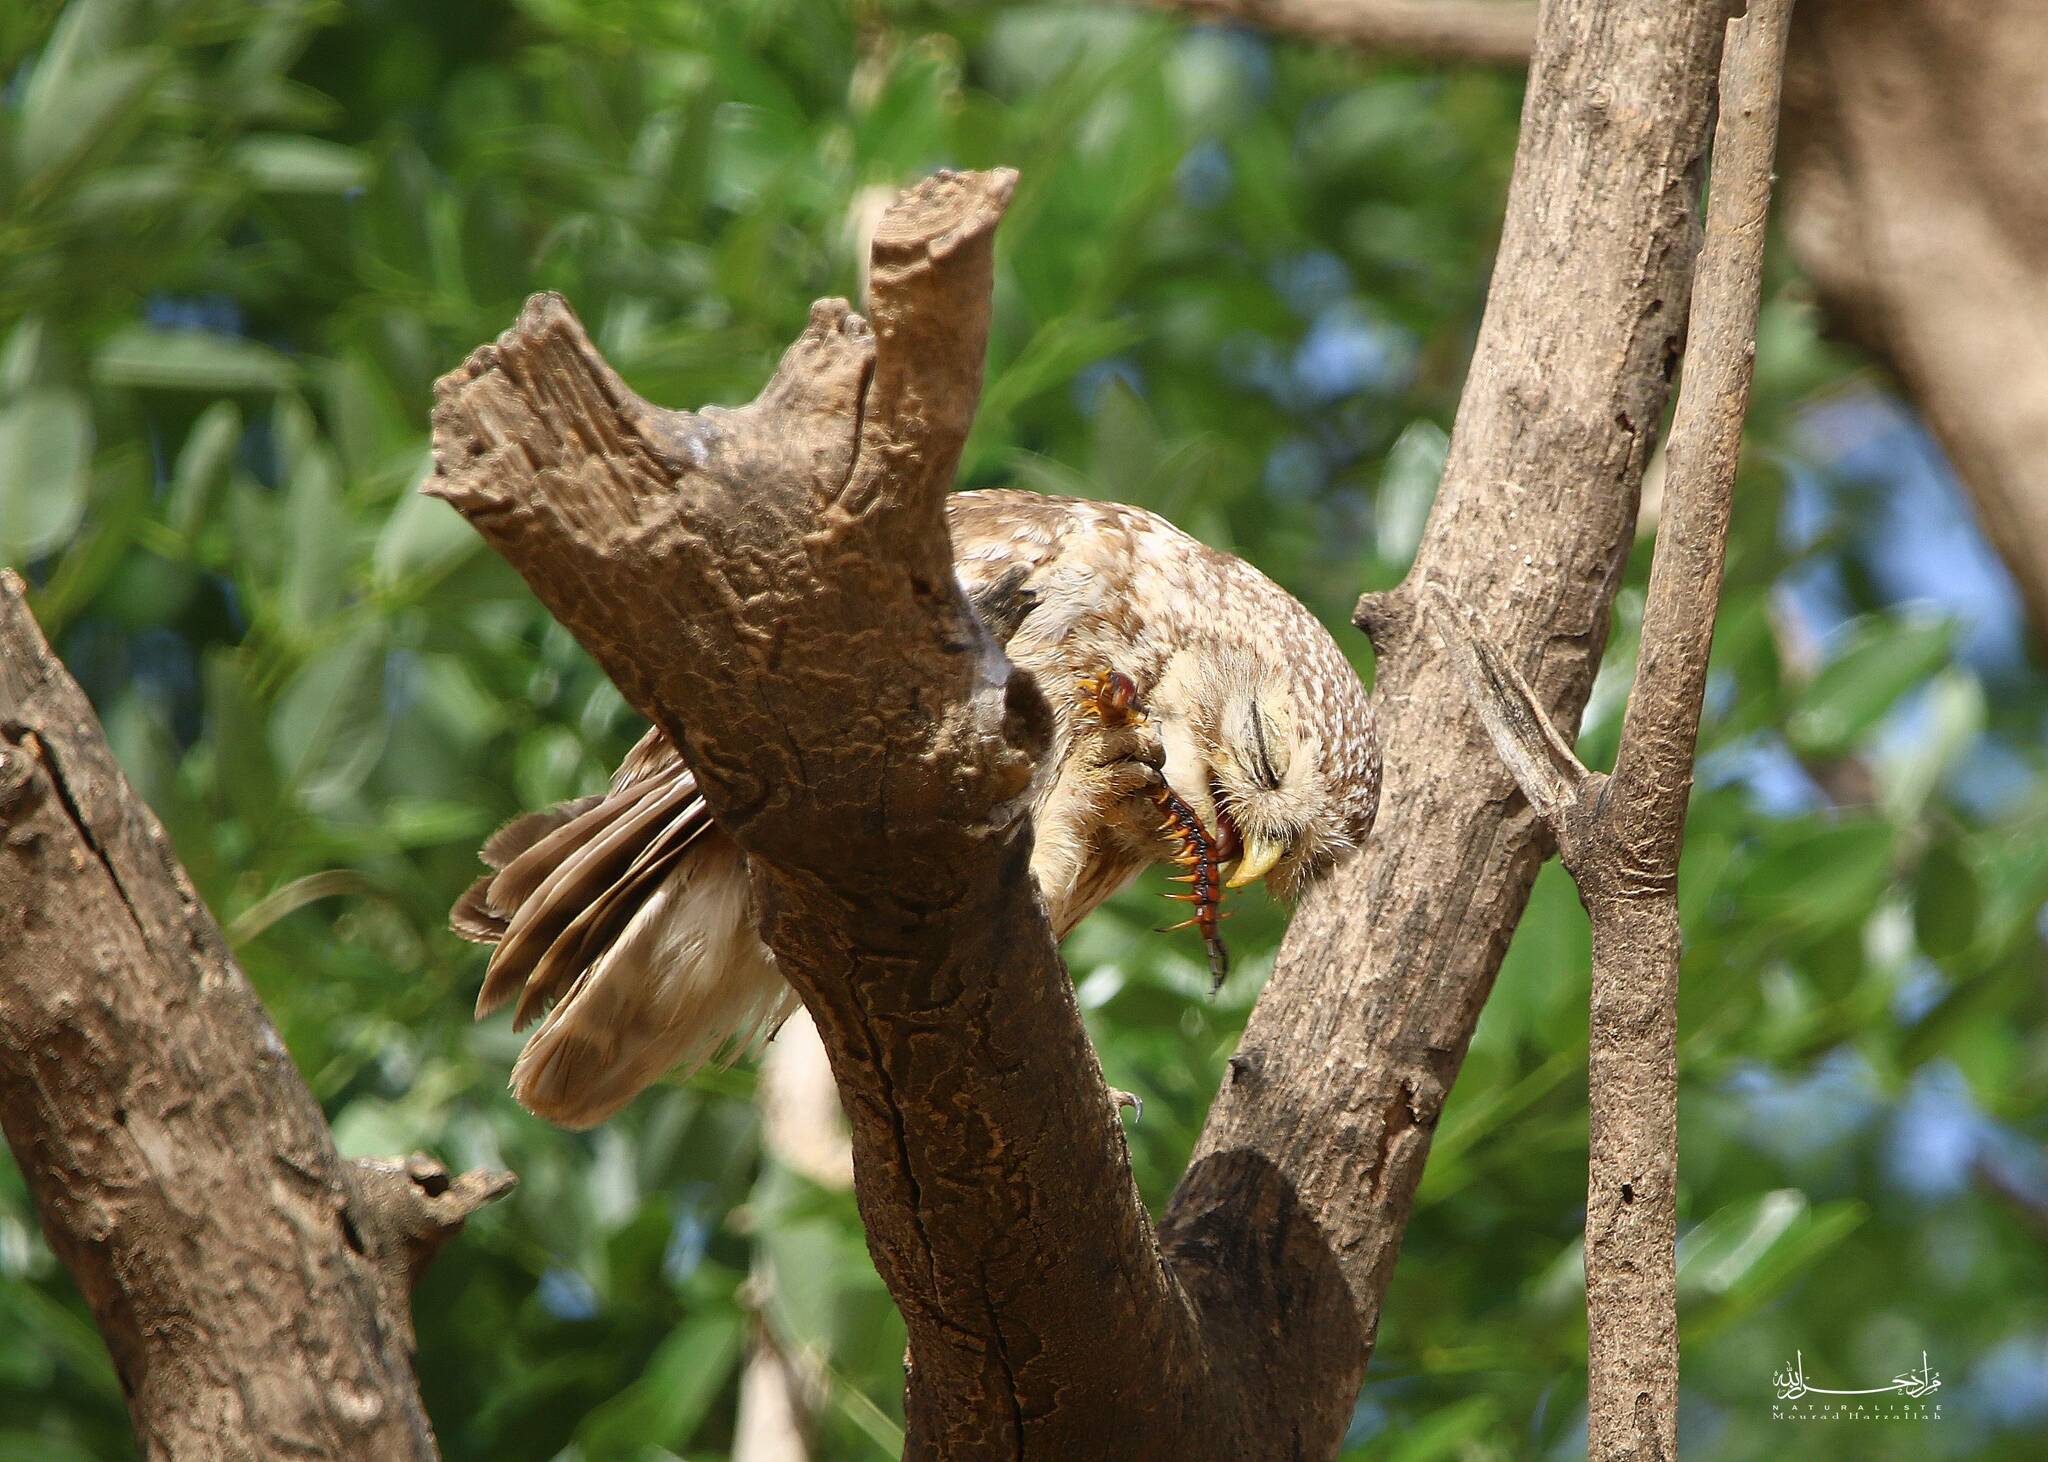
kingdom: Animalia
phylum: Chordata
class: Aves
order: Strigiformes
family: Strigidae
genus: Athene
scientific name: Athene noctua
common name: Little owl
